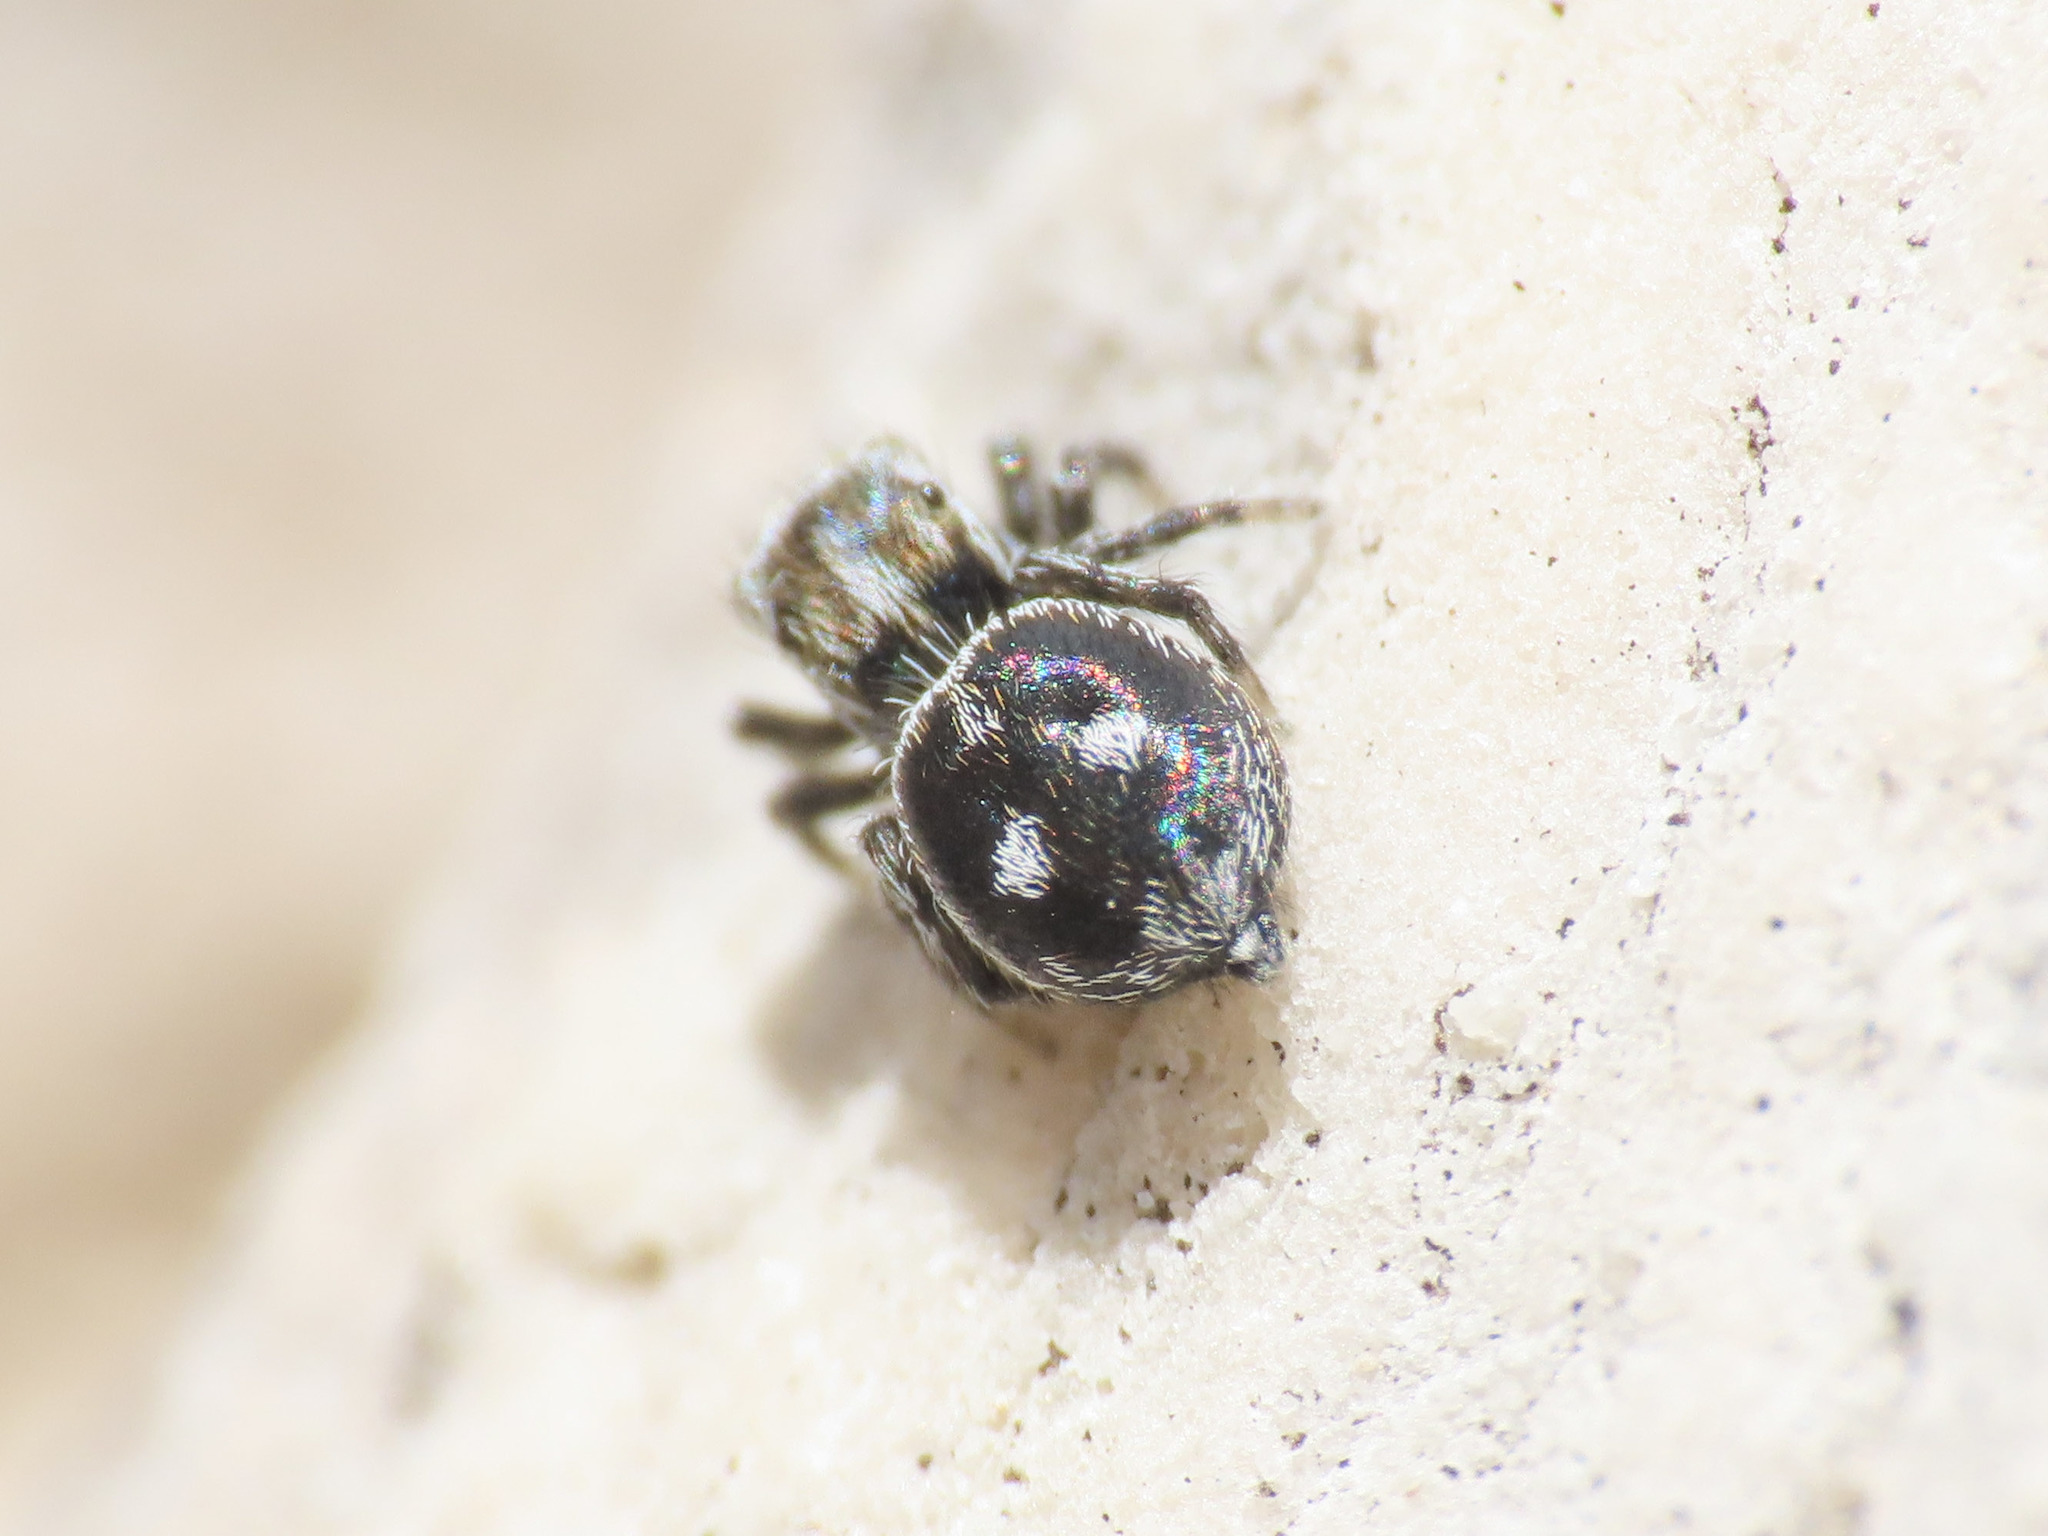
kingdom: Animalia
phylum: Arthropoda
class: Arachnida
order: Araneae
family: Salticidae
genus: Attulus
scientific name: Attulus atricapillus
